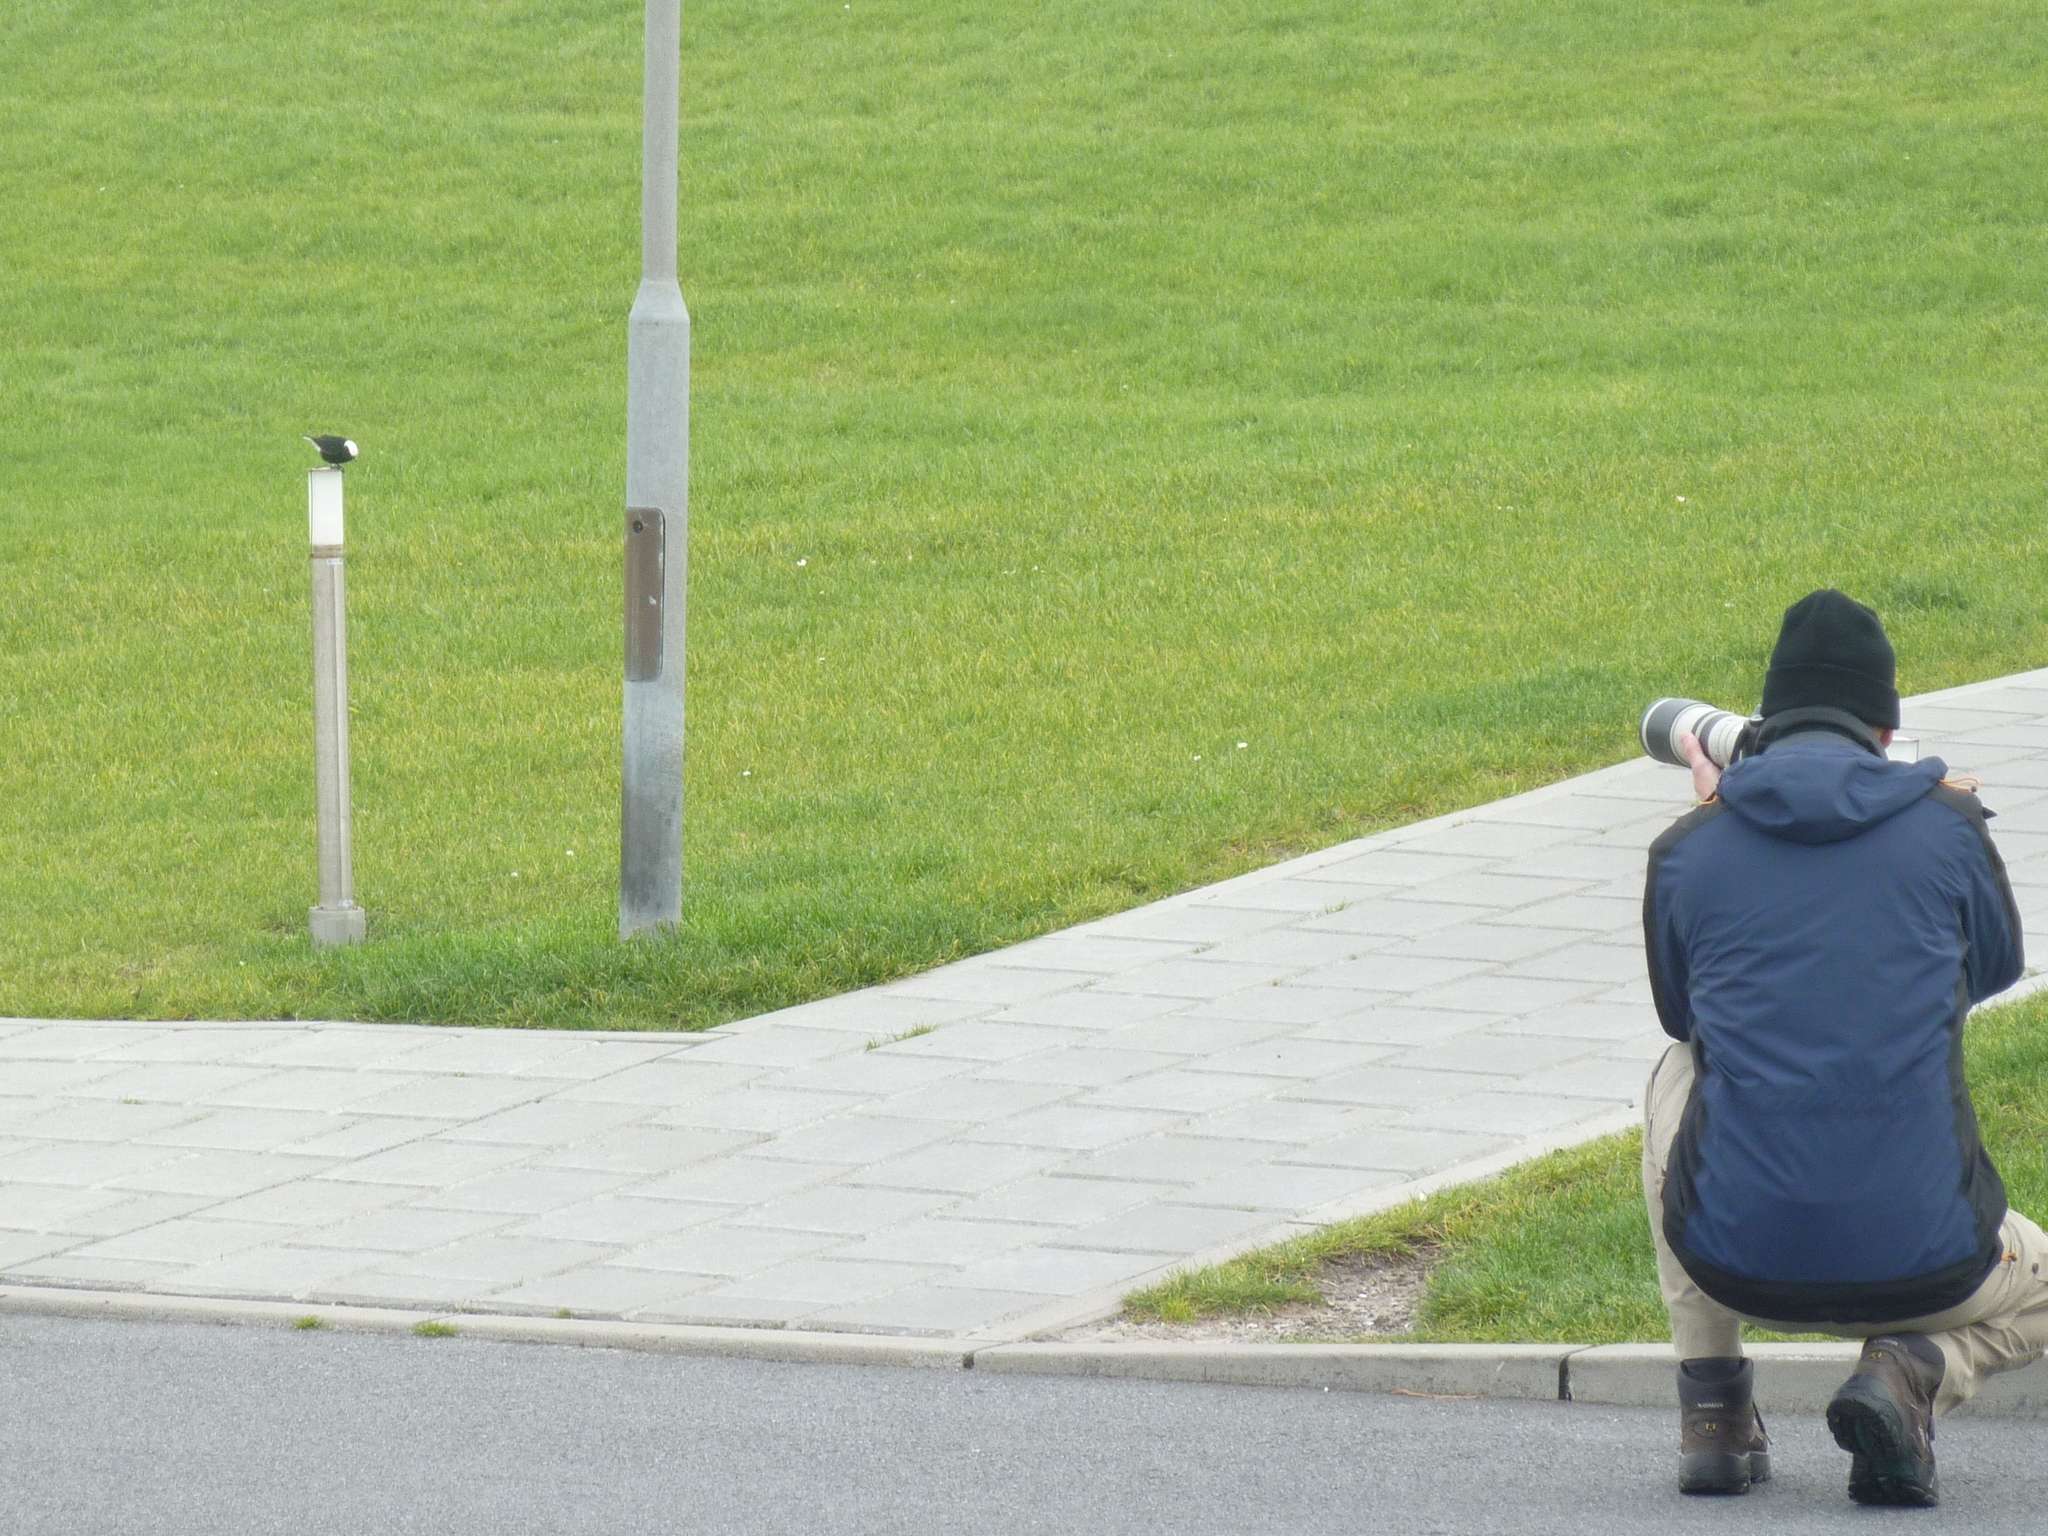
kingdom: Animalia
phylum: Chordata
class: Aves
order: Passeriformes
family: Muscicapidae
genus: Oenanthe
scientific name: Oenanthe leucopyga
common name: White-crowned wheatear
